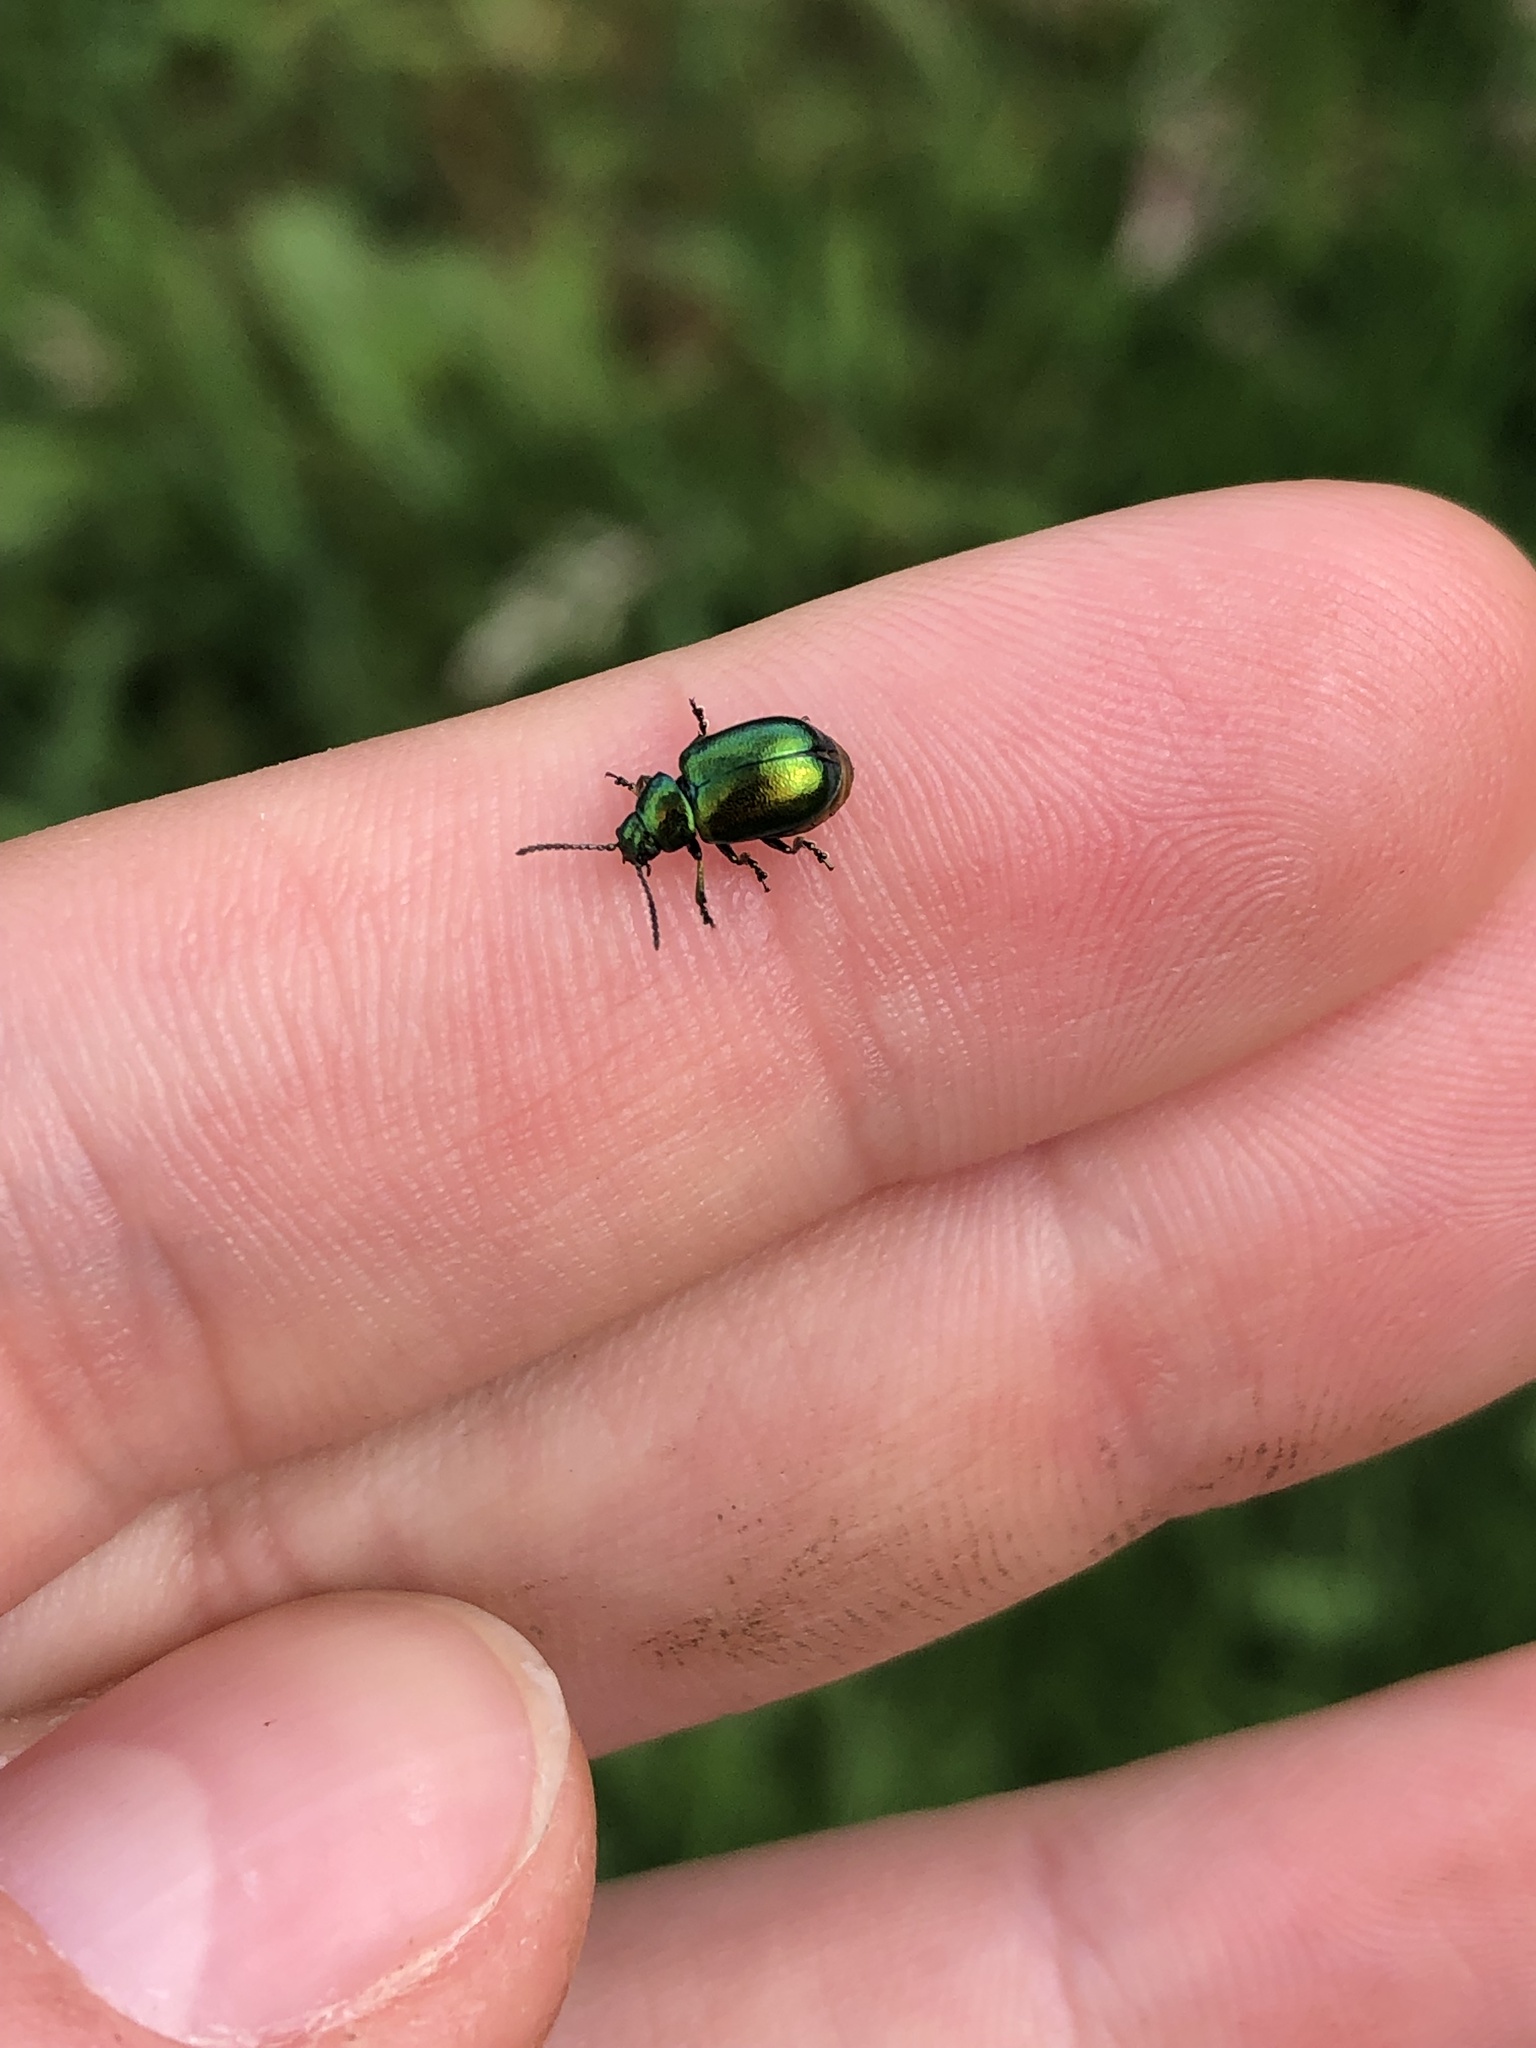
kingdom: Animalia
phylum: Arthropoda
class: Insecta
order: Coleoptera
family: Chrysomelidae
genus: Gastrophysa
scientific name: Gastrophysa viridula
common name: Green dock beetle
